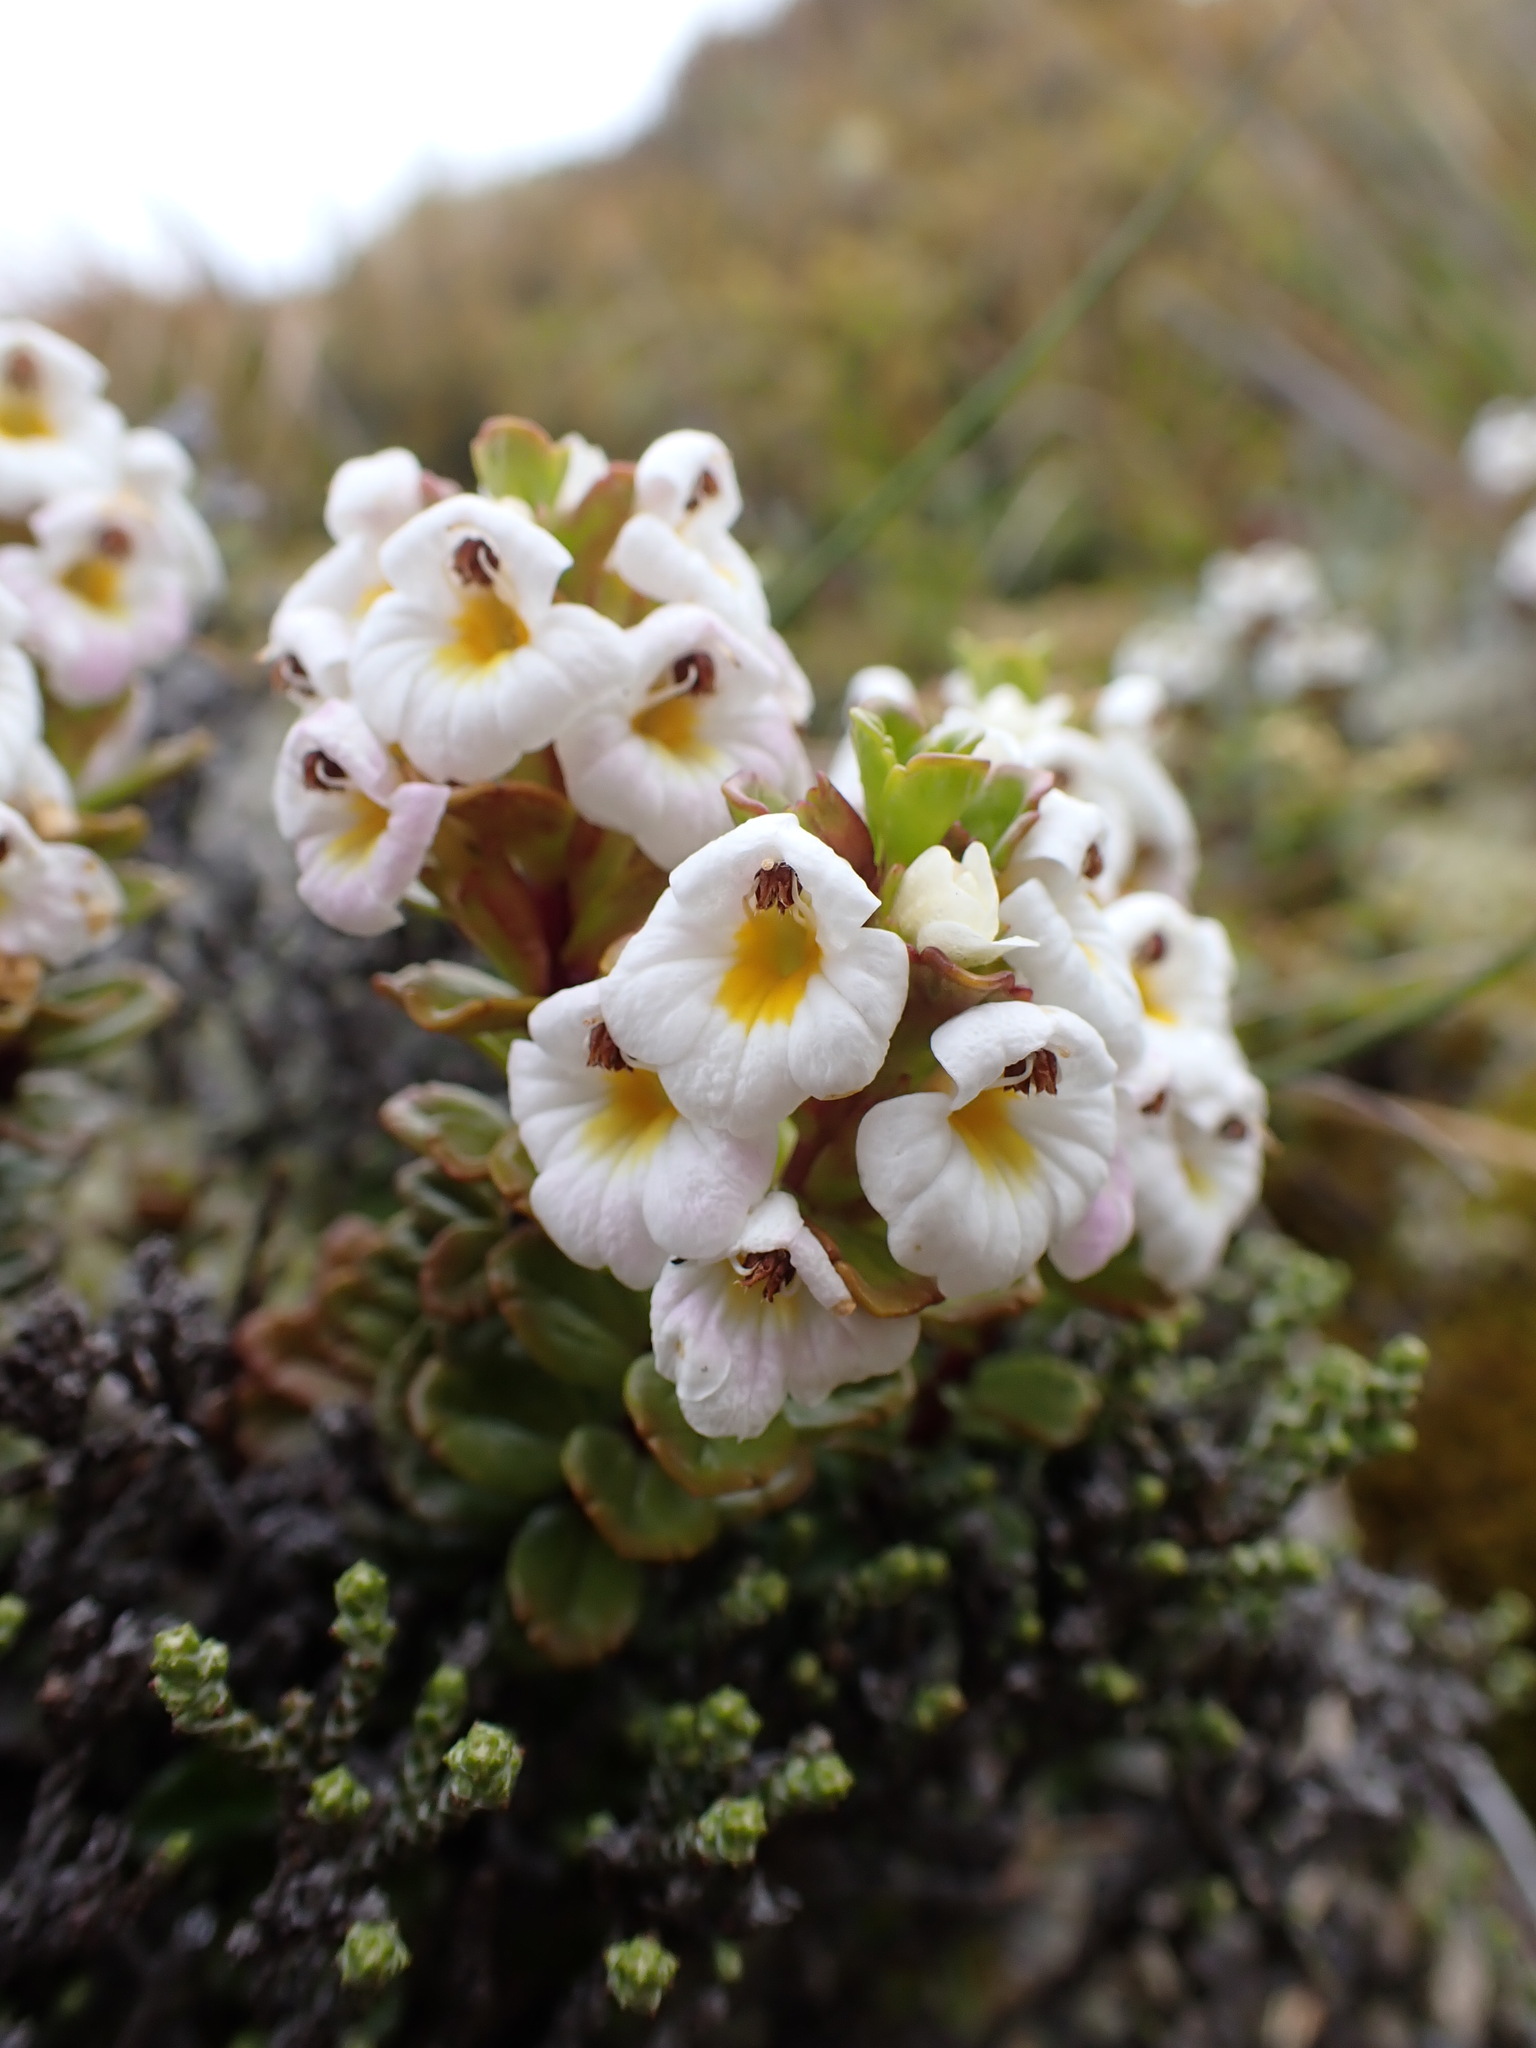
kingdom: Plantae
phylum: Tracheophyta
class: Magnoliopsida
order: Lamiales
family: Orobanchaceae
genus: Euphrasia
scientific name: Euphrasia monroi
